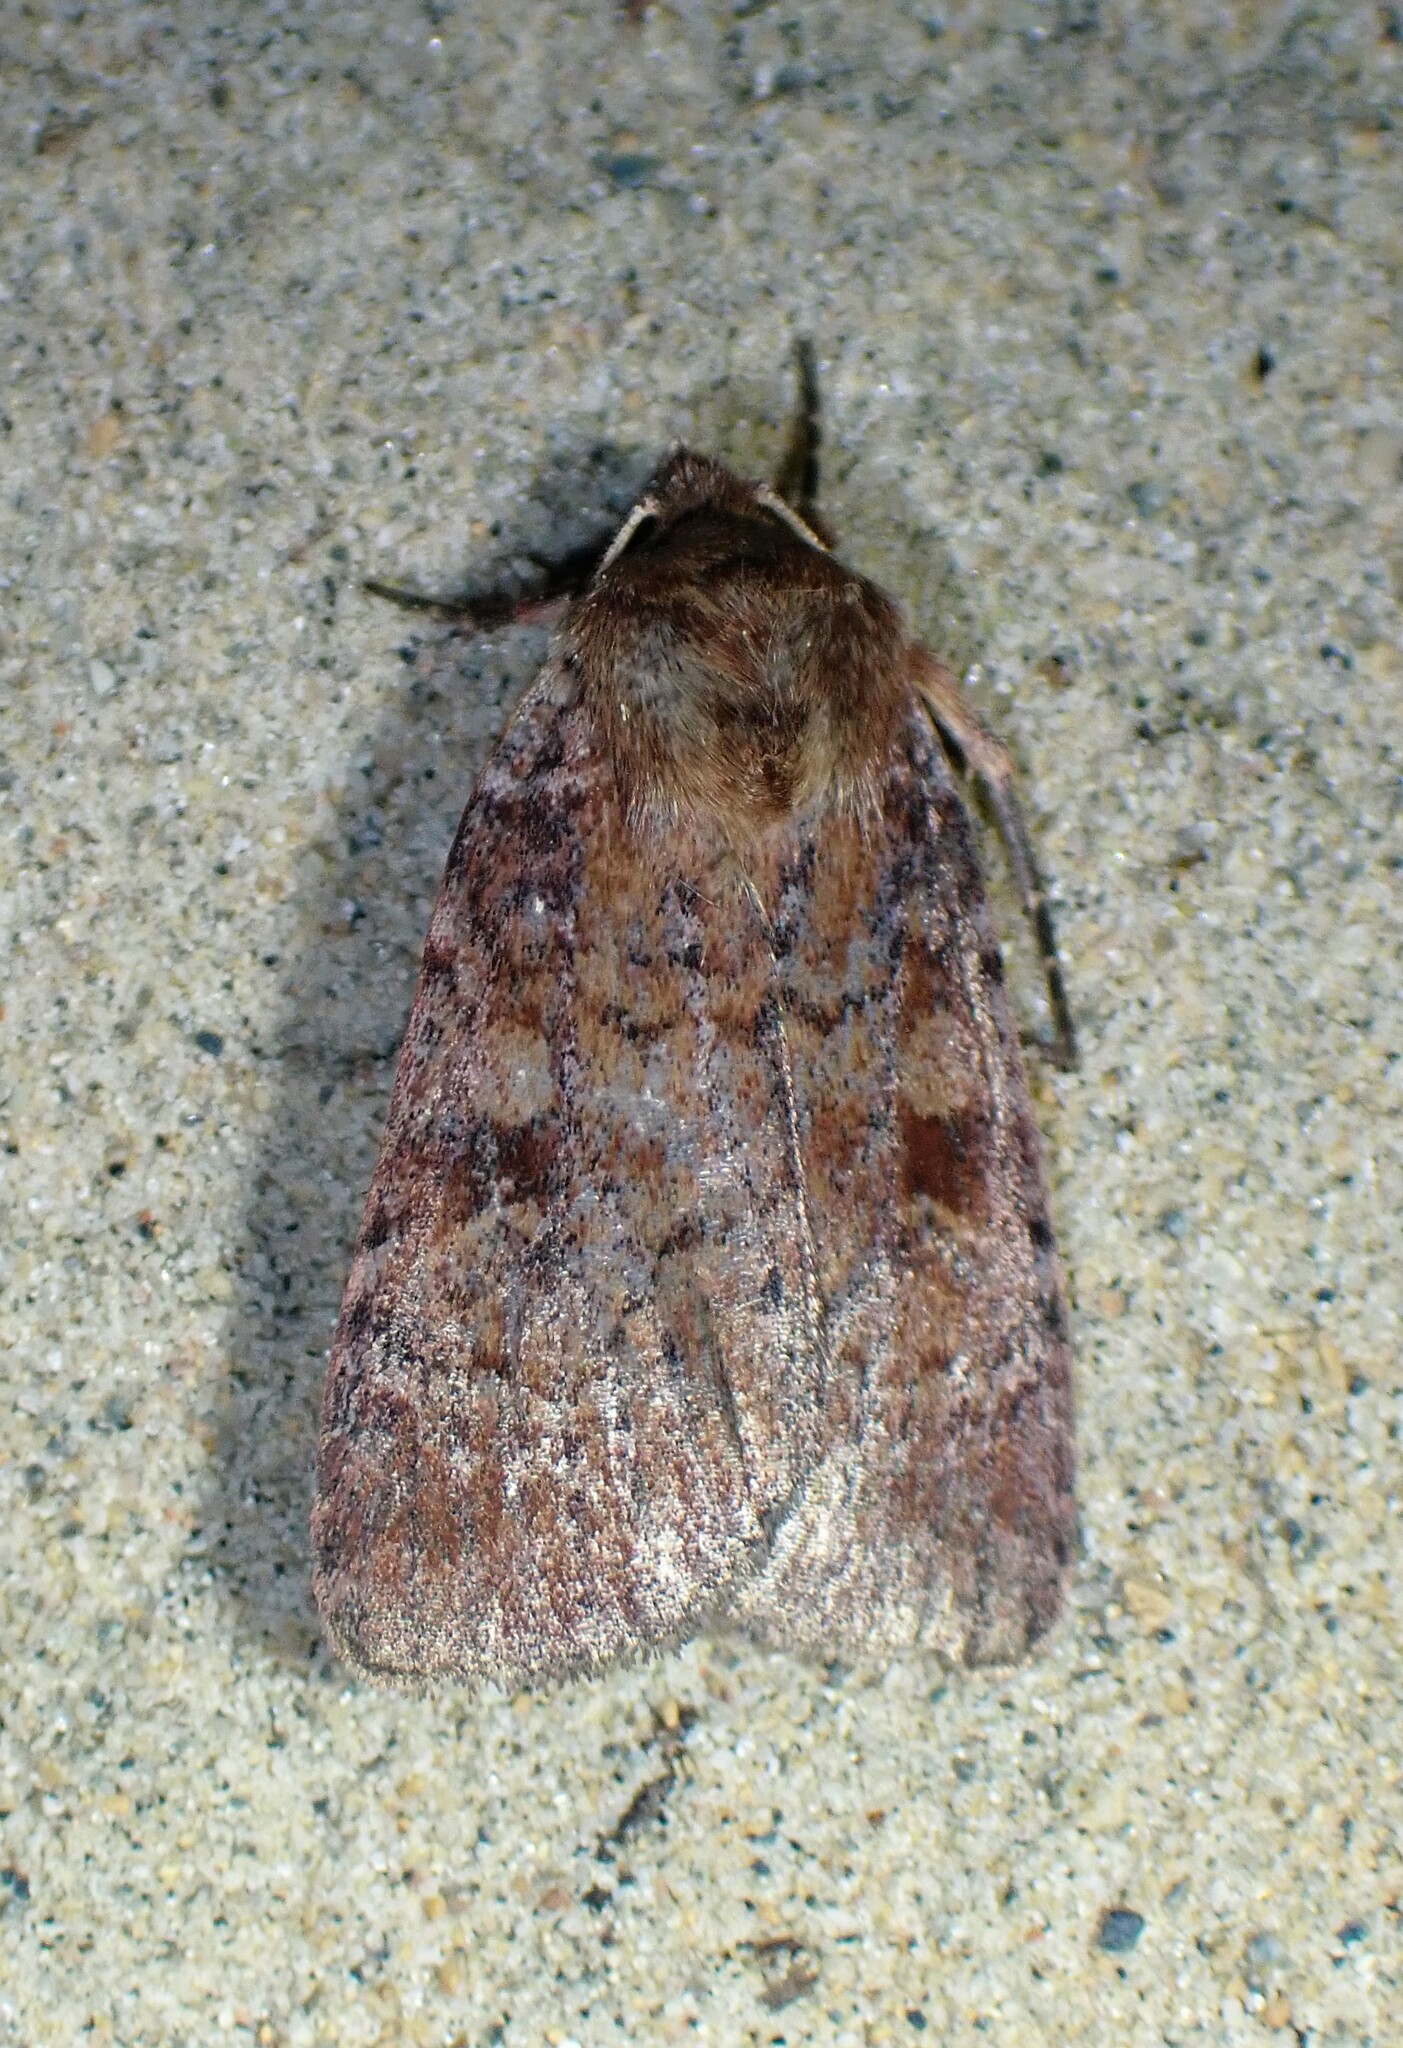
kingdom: Animalia
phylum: Arthropoda
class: Insecta
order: Lepidoptera
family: Noctuidae
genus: Lycophotia
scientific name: Lycophotia phyllophora
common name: Lycophotia moth
